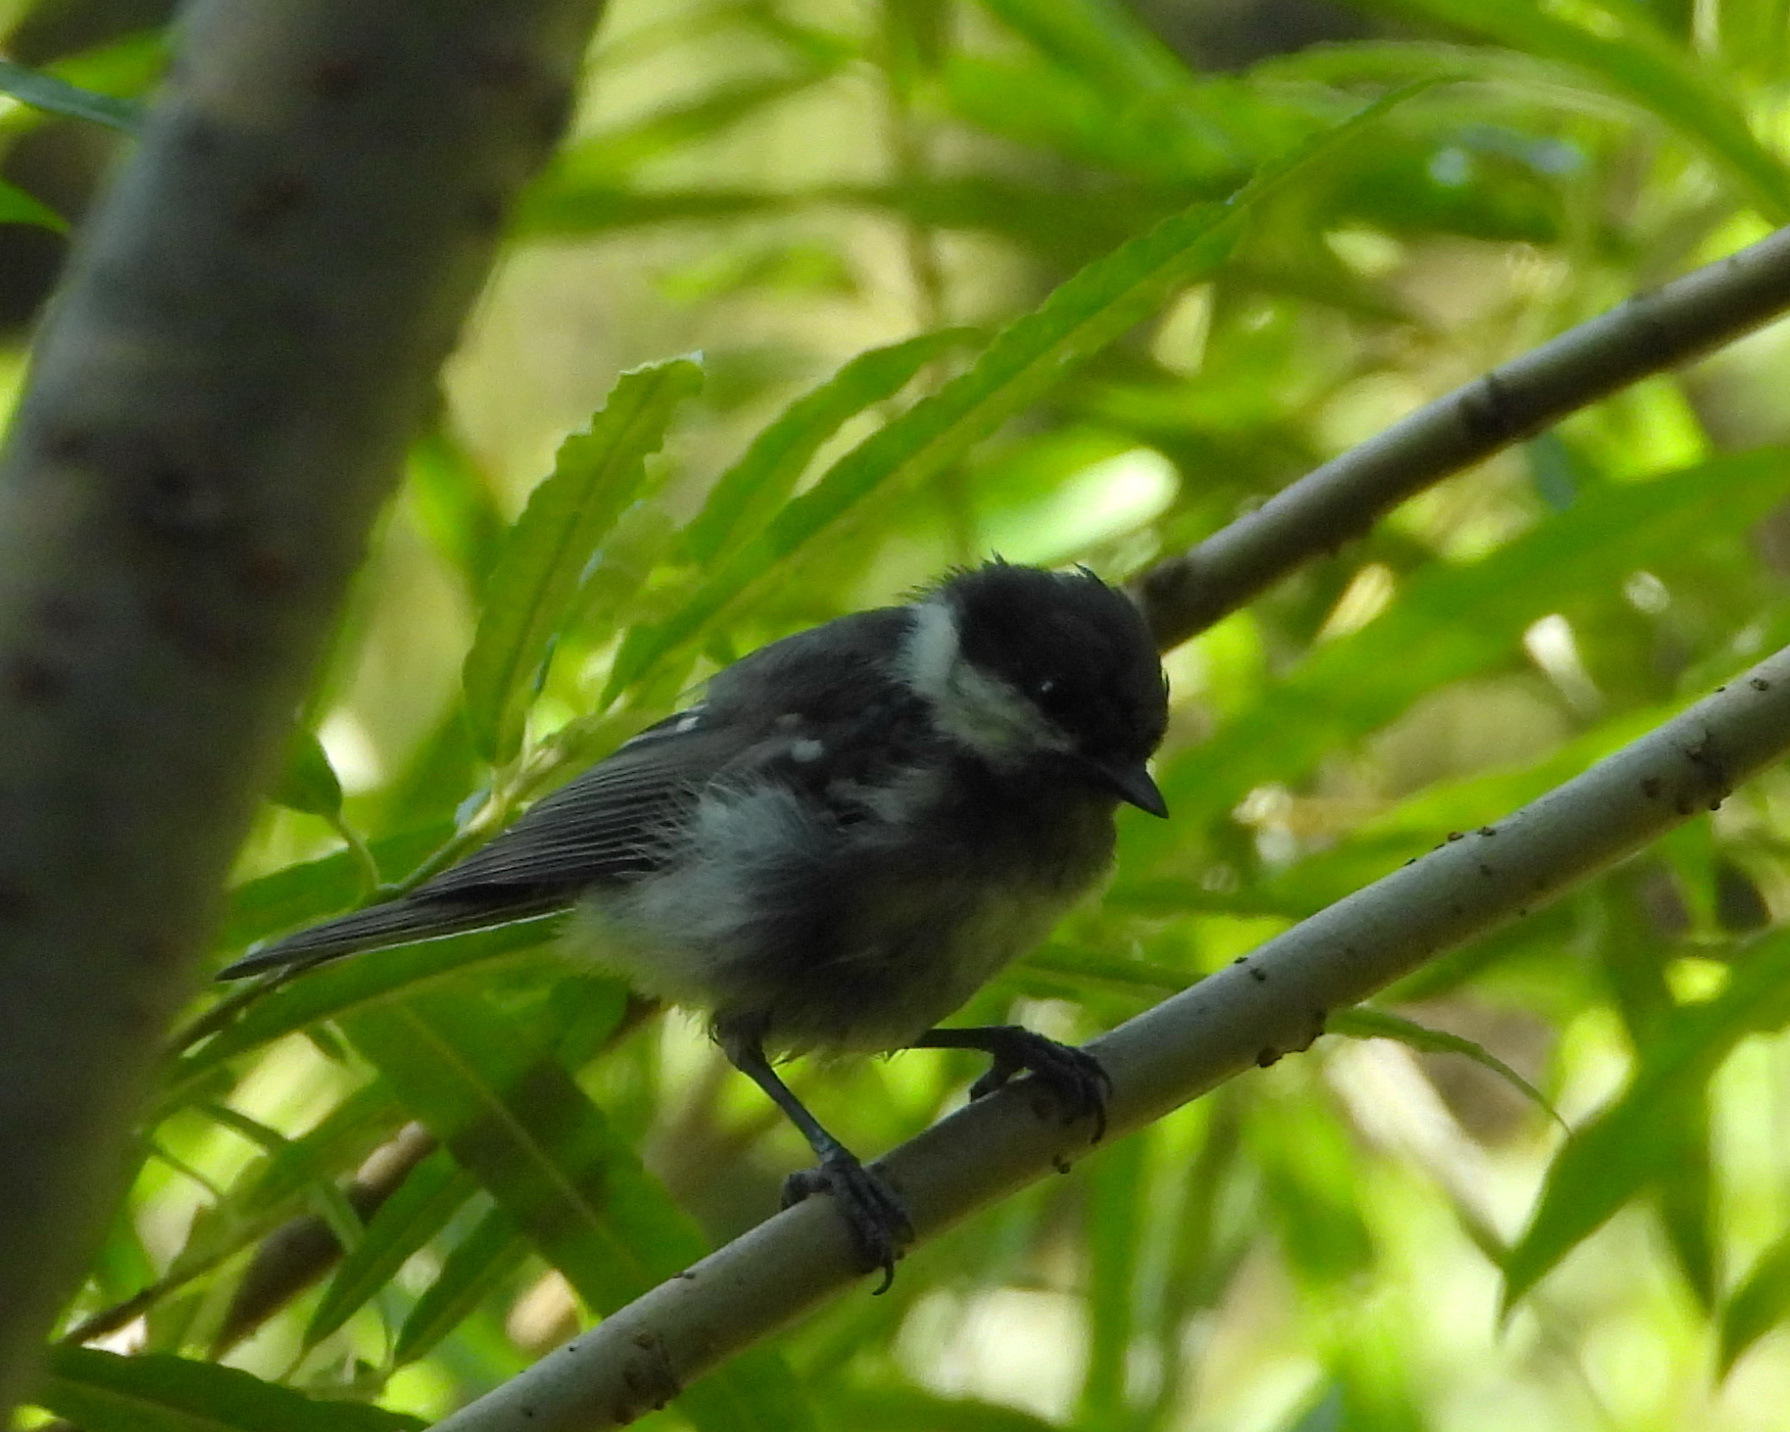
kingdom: Animalia
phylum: Chordata
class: Aves
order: Passeriformes
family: Paridae
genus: Periparus
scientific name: Periparus ater
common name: Coal tit
